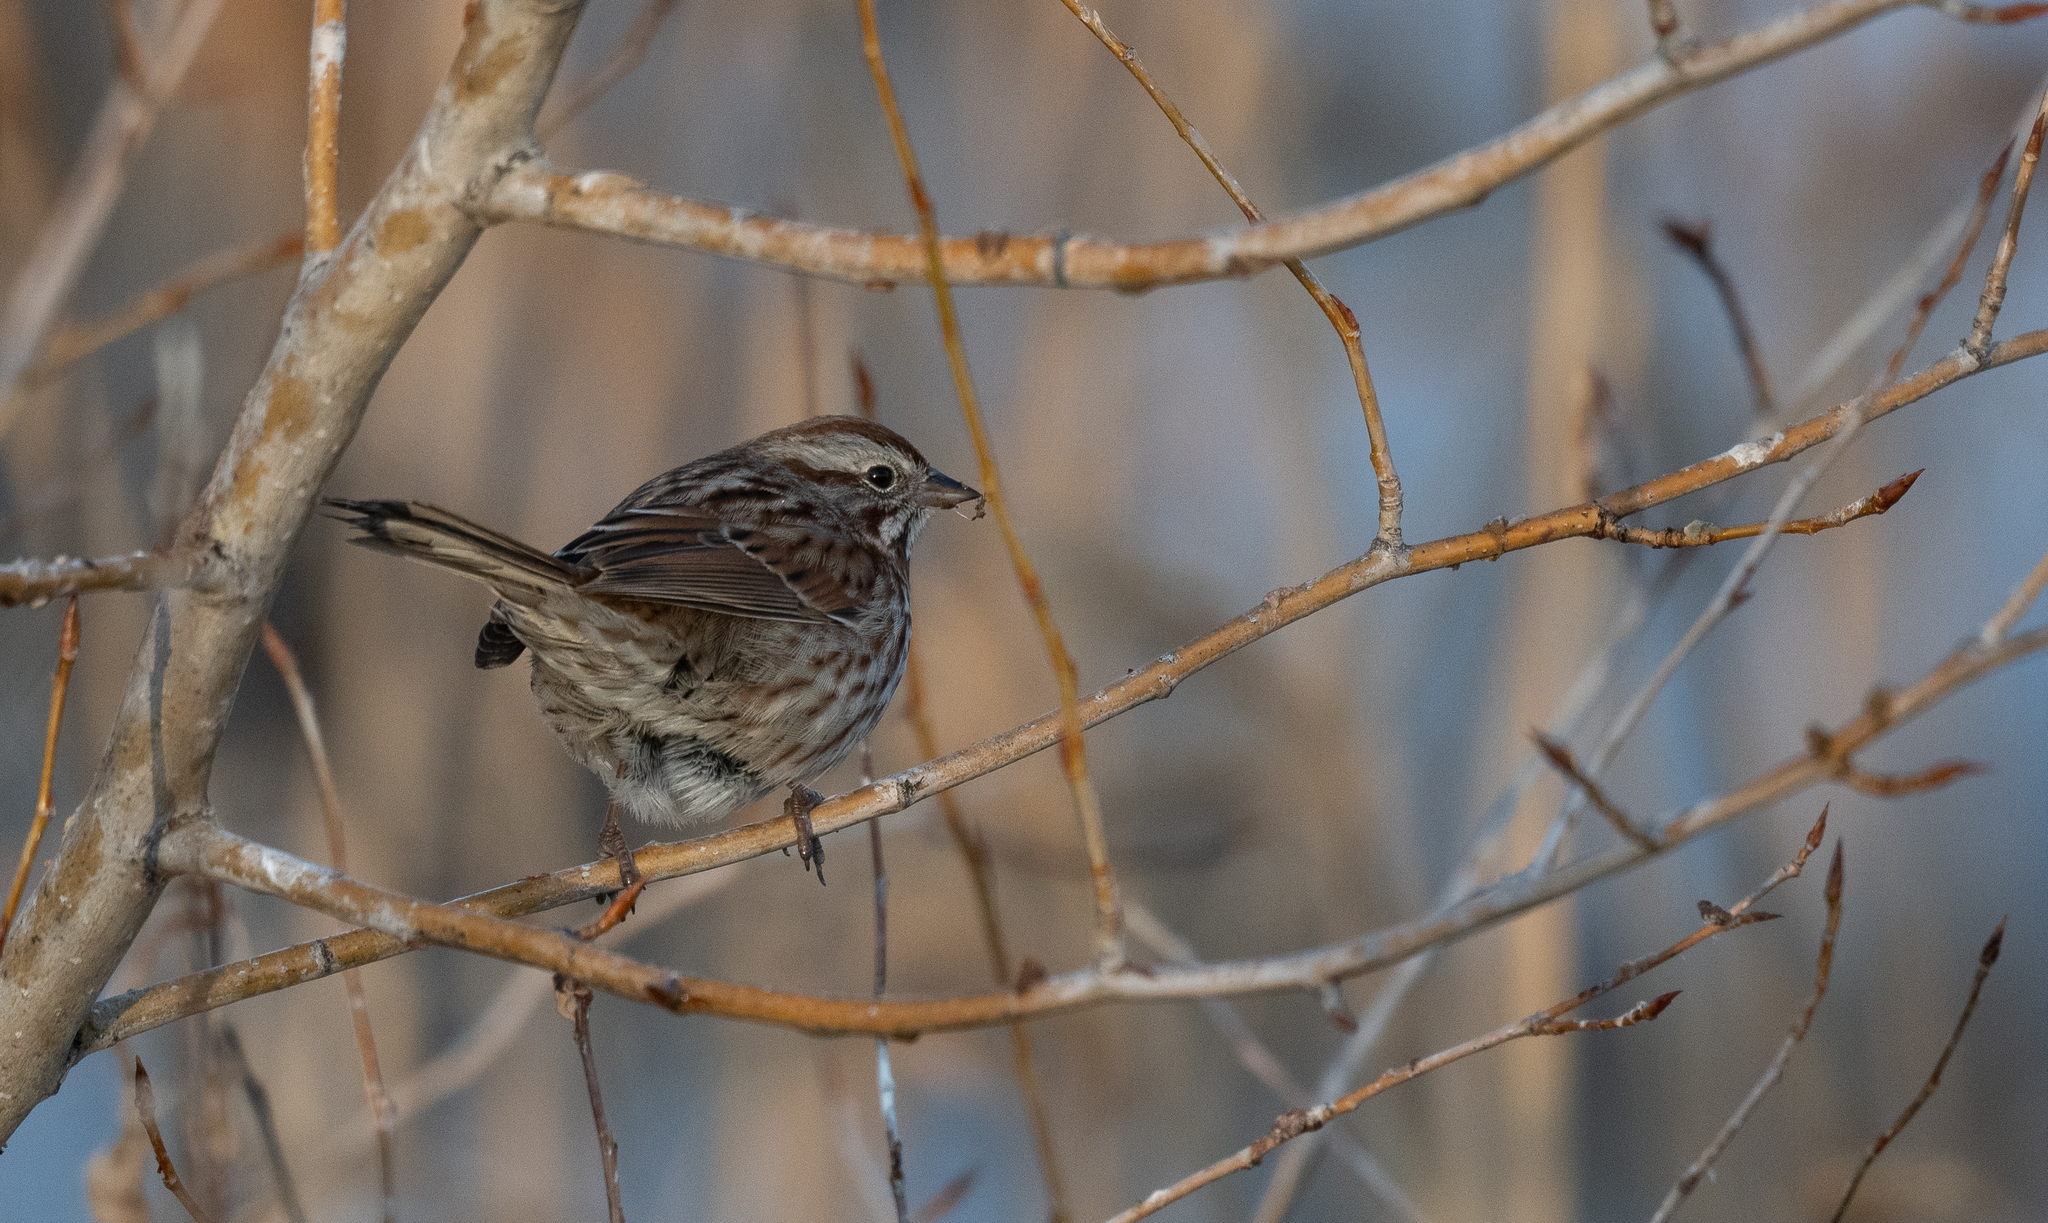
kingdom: Animalia
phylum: Chordata
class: Aves
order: Passeriformes
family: Passerellidae
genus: Melospiza
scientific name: Melospiza melodia
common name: Song sparrow
